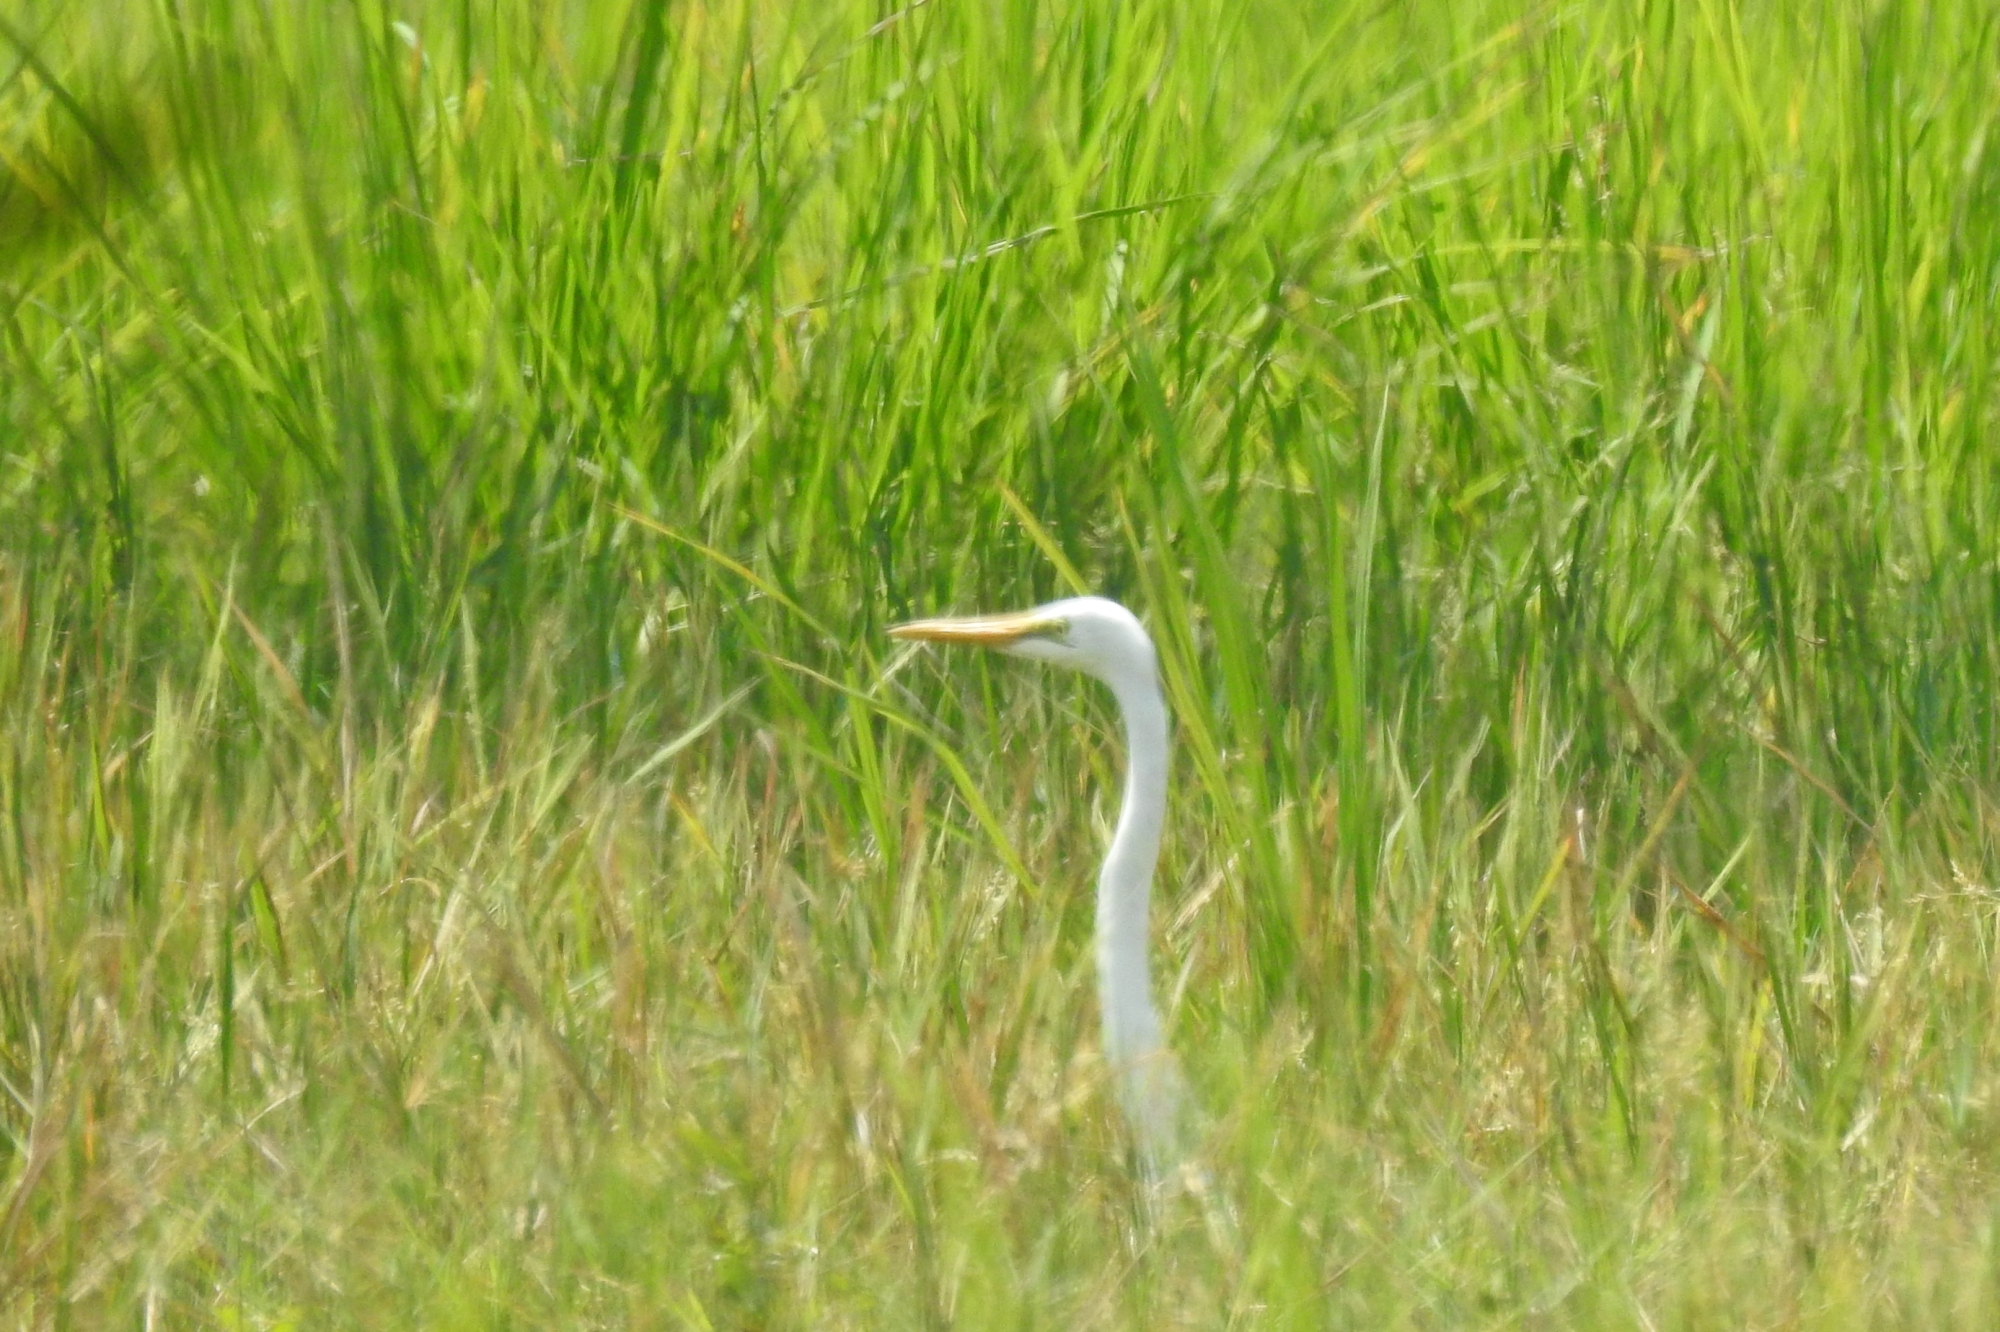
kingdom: Animalia
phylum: Chordata
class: Aves
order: Pelecaniformes
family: Ardeidae
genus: Ardea
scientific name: Ardea alba
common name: Great egret
